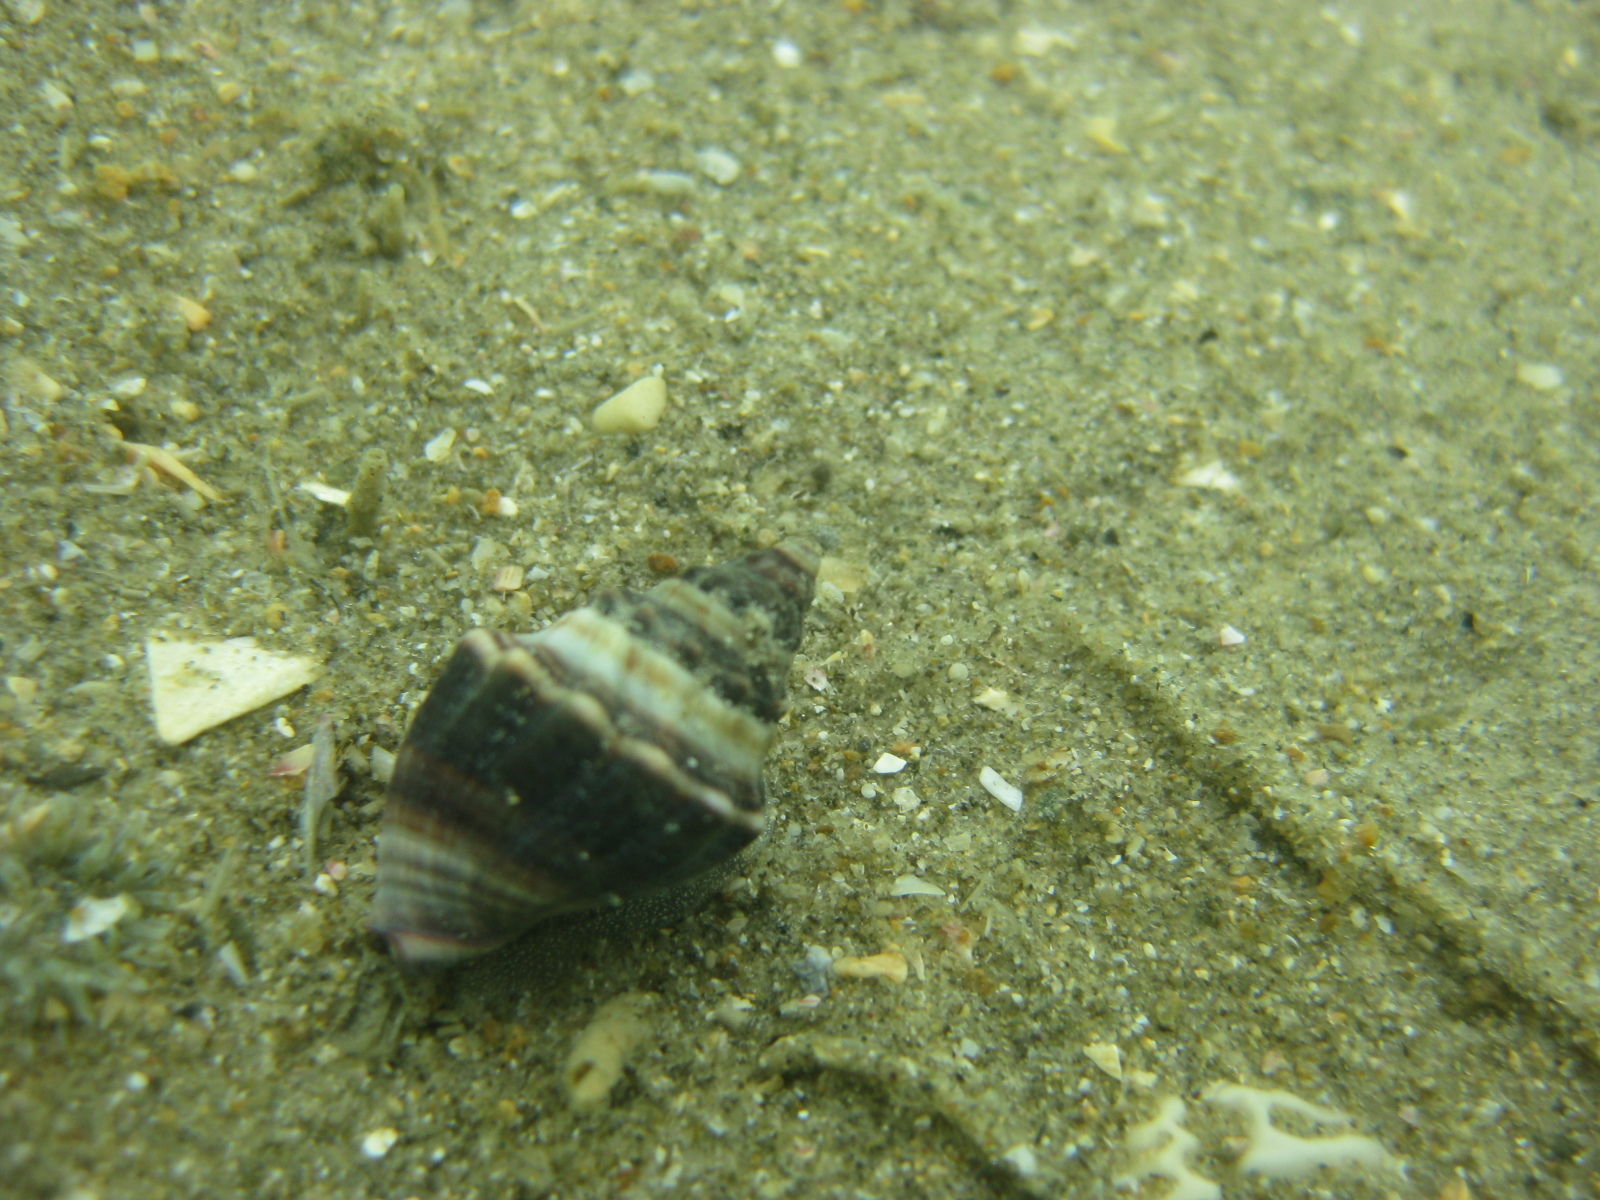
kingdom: Animalia
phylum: Mollusca
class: Gastropoda
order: Neogastropoda
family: Cominellidae
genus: Cominella
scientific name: Cominella glandiformis
